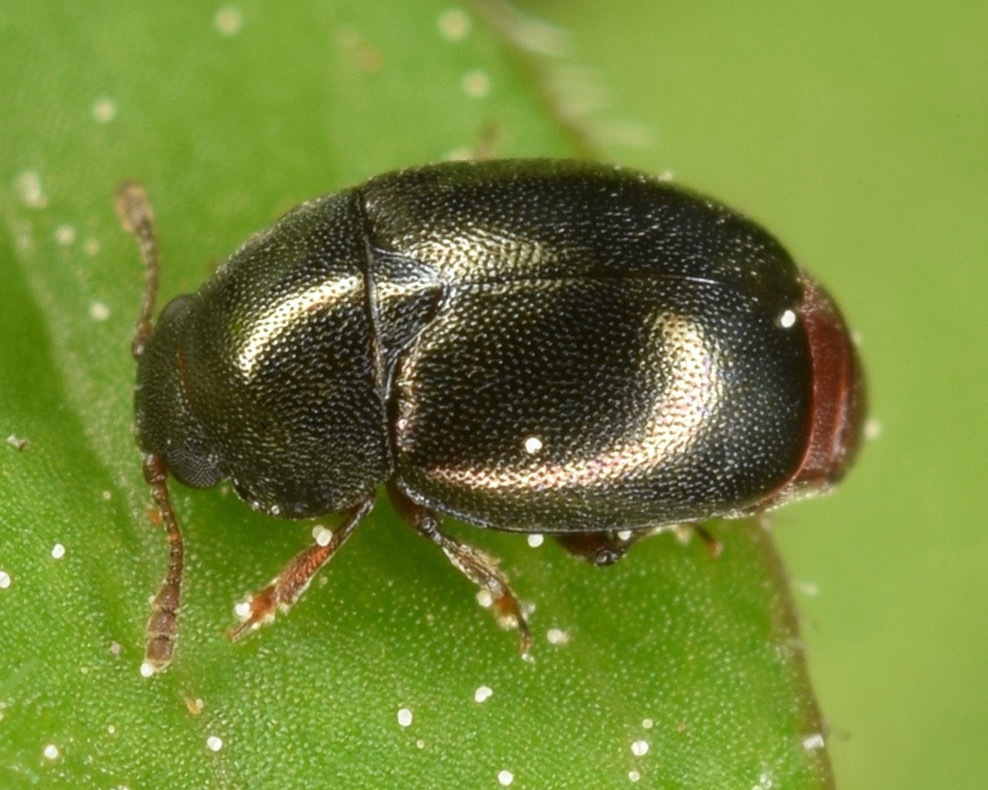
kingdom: Animalia
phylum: Arthropoda
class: Insecta
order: Coleoptera
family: Kateretidae
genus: Heterhelus
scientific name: Heterhelus abdominalis
